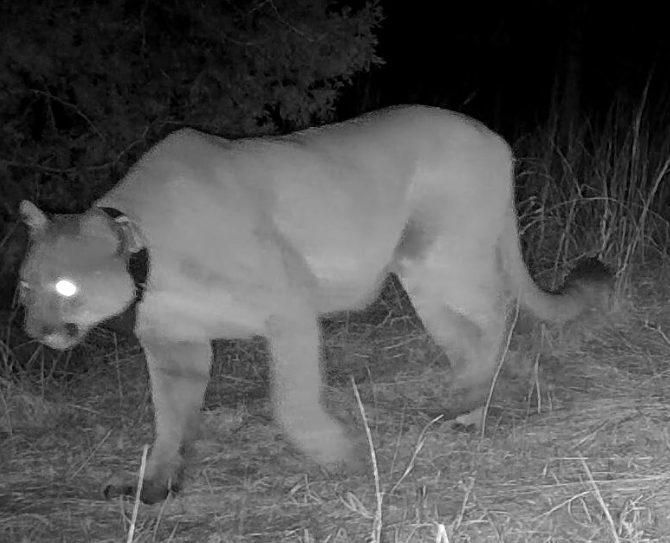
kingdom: Animalia
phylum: Chordata
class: Mammalia
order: Carnivora
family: Felidae
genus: Puma
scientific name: Puma concolor
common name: Puma
